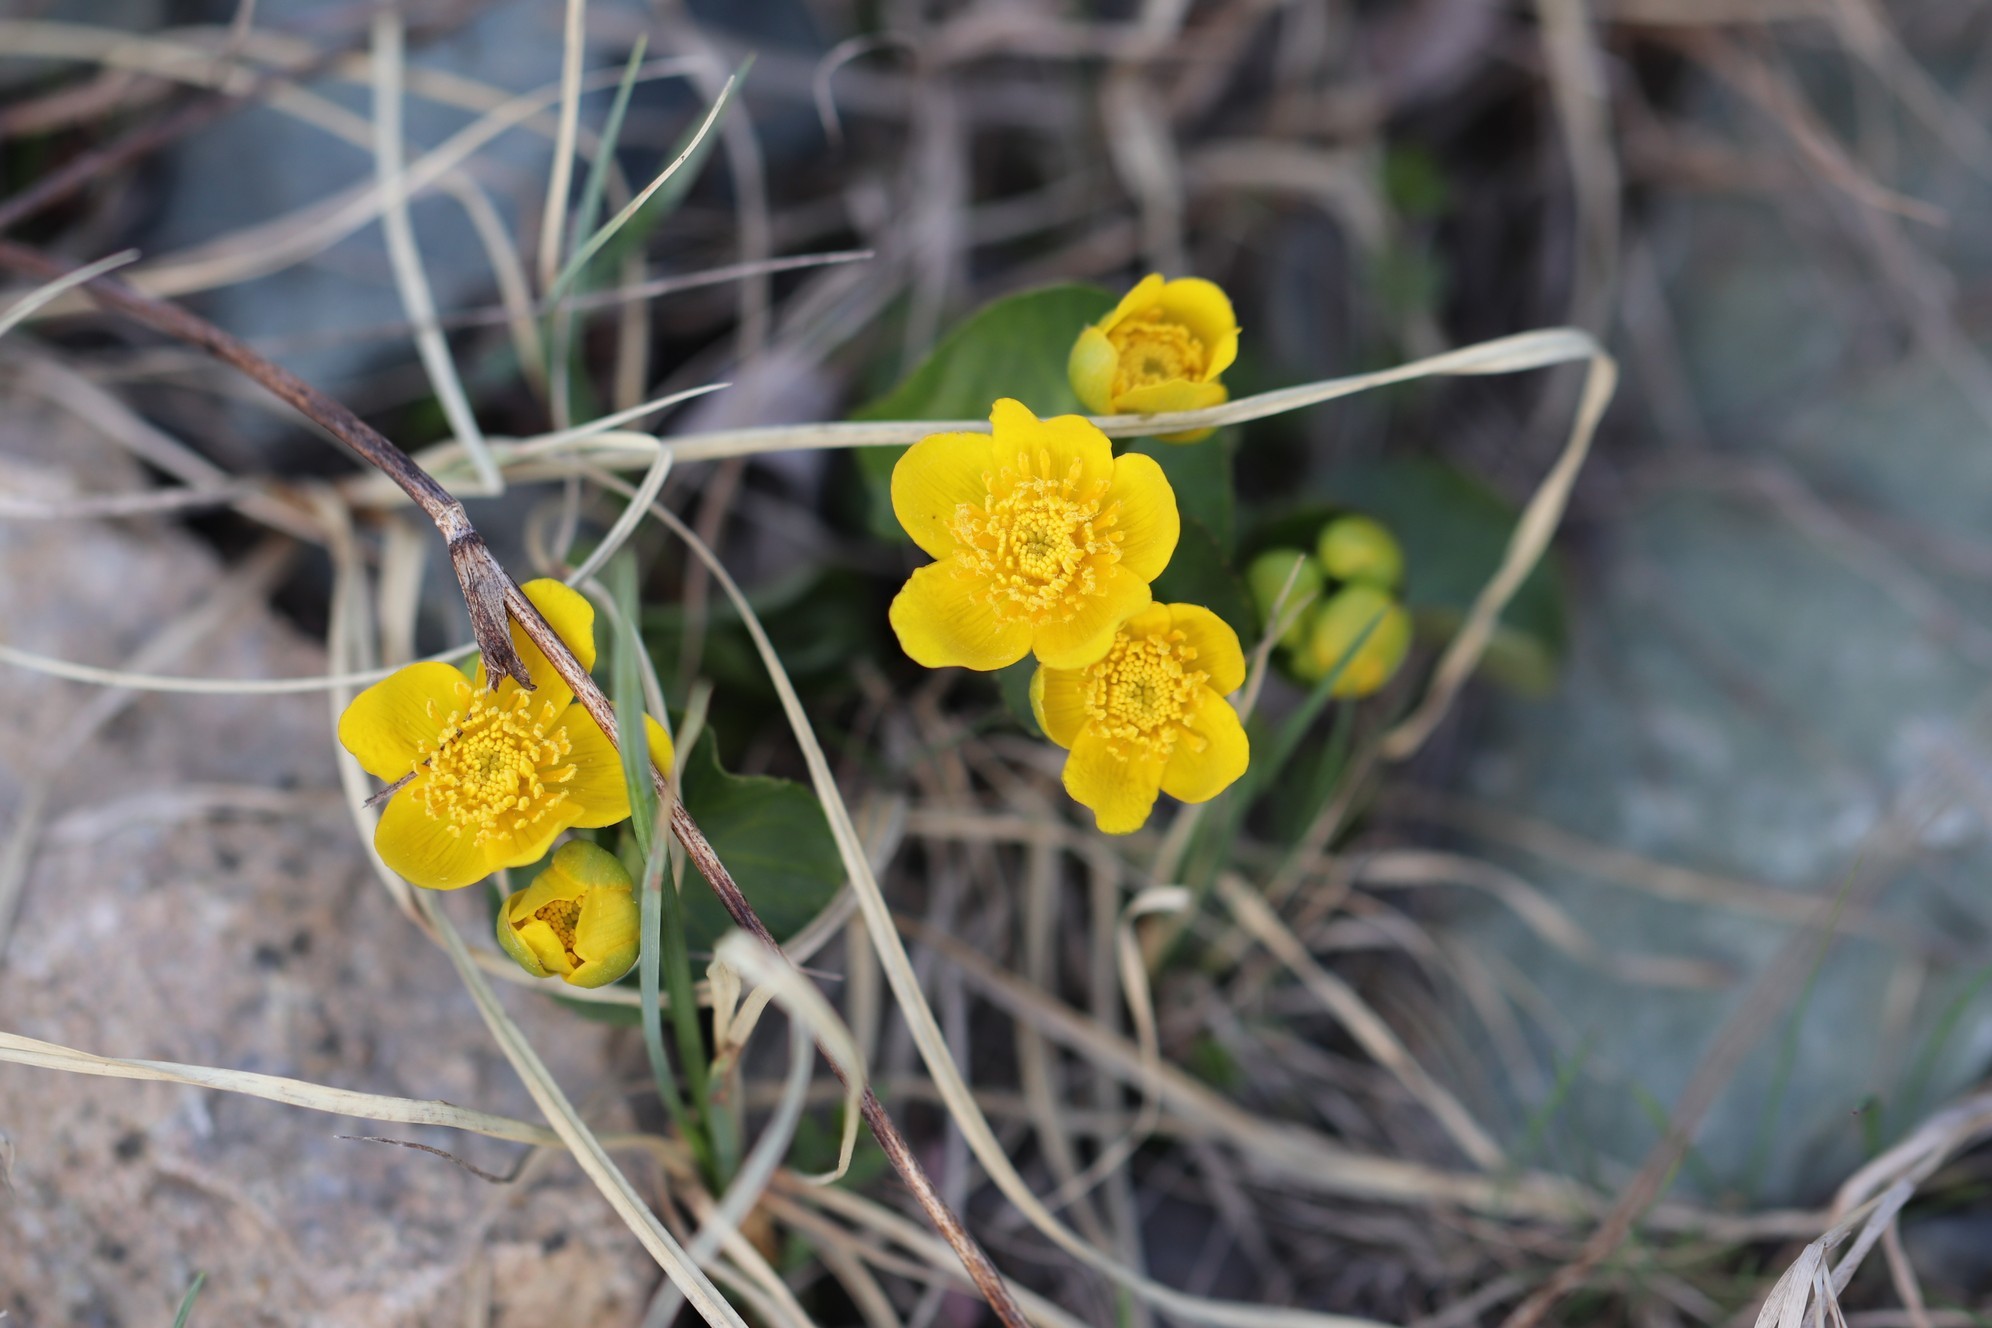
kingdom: Plantae
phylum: Tracheophyta
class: Magnoliopsida
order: Ranunculales
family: Ranunculaceae
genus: Caltha
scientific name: Caltha palustris
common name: Marsh marigold
